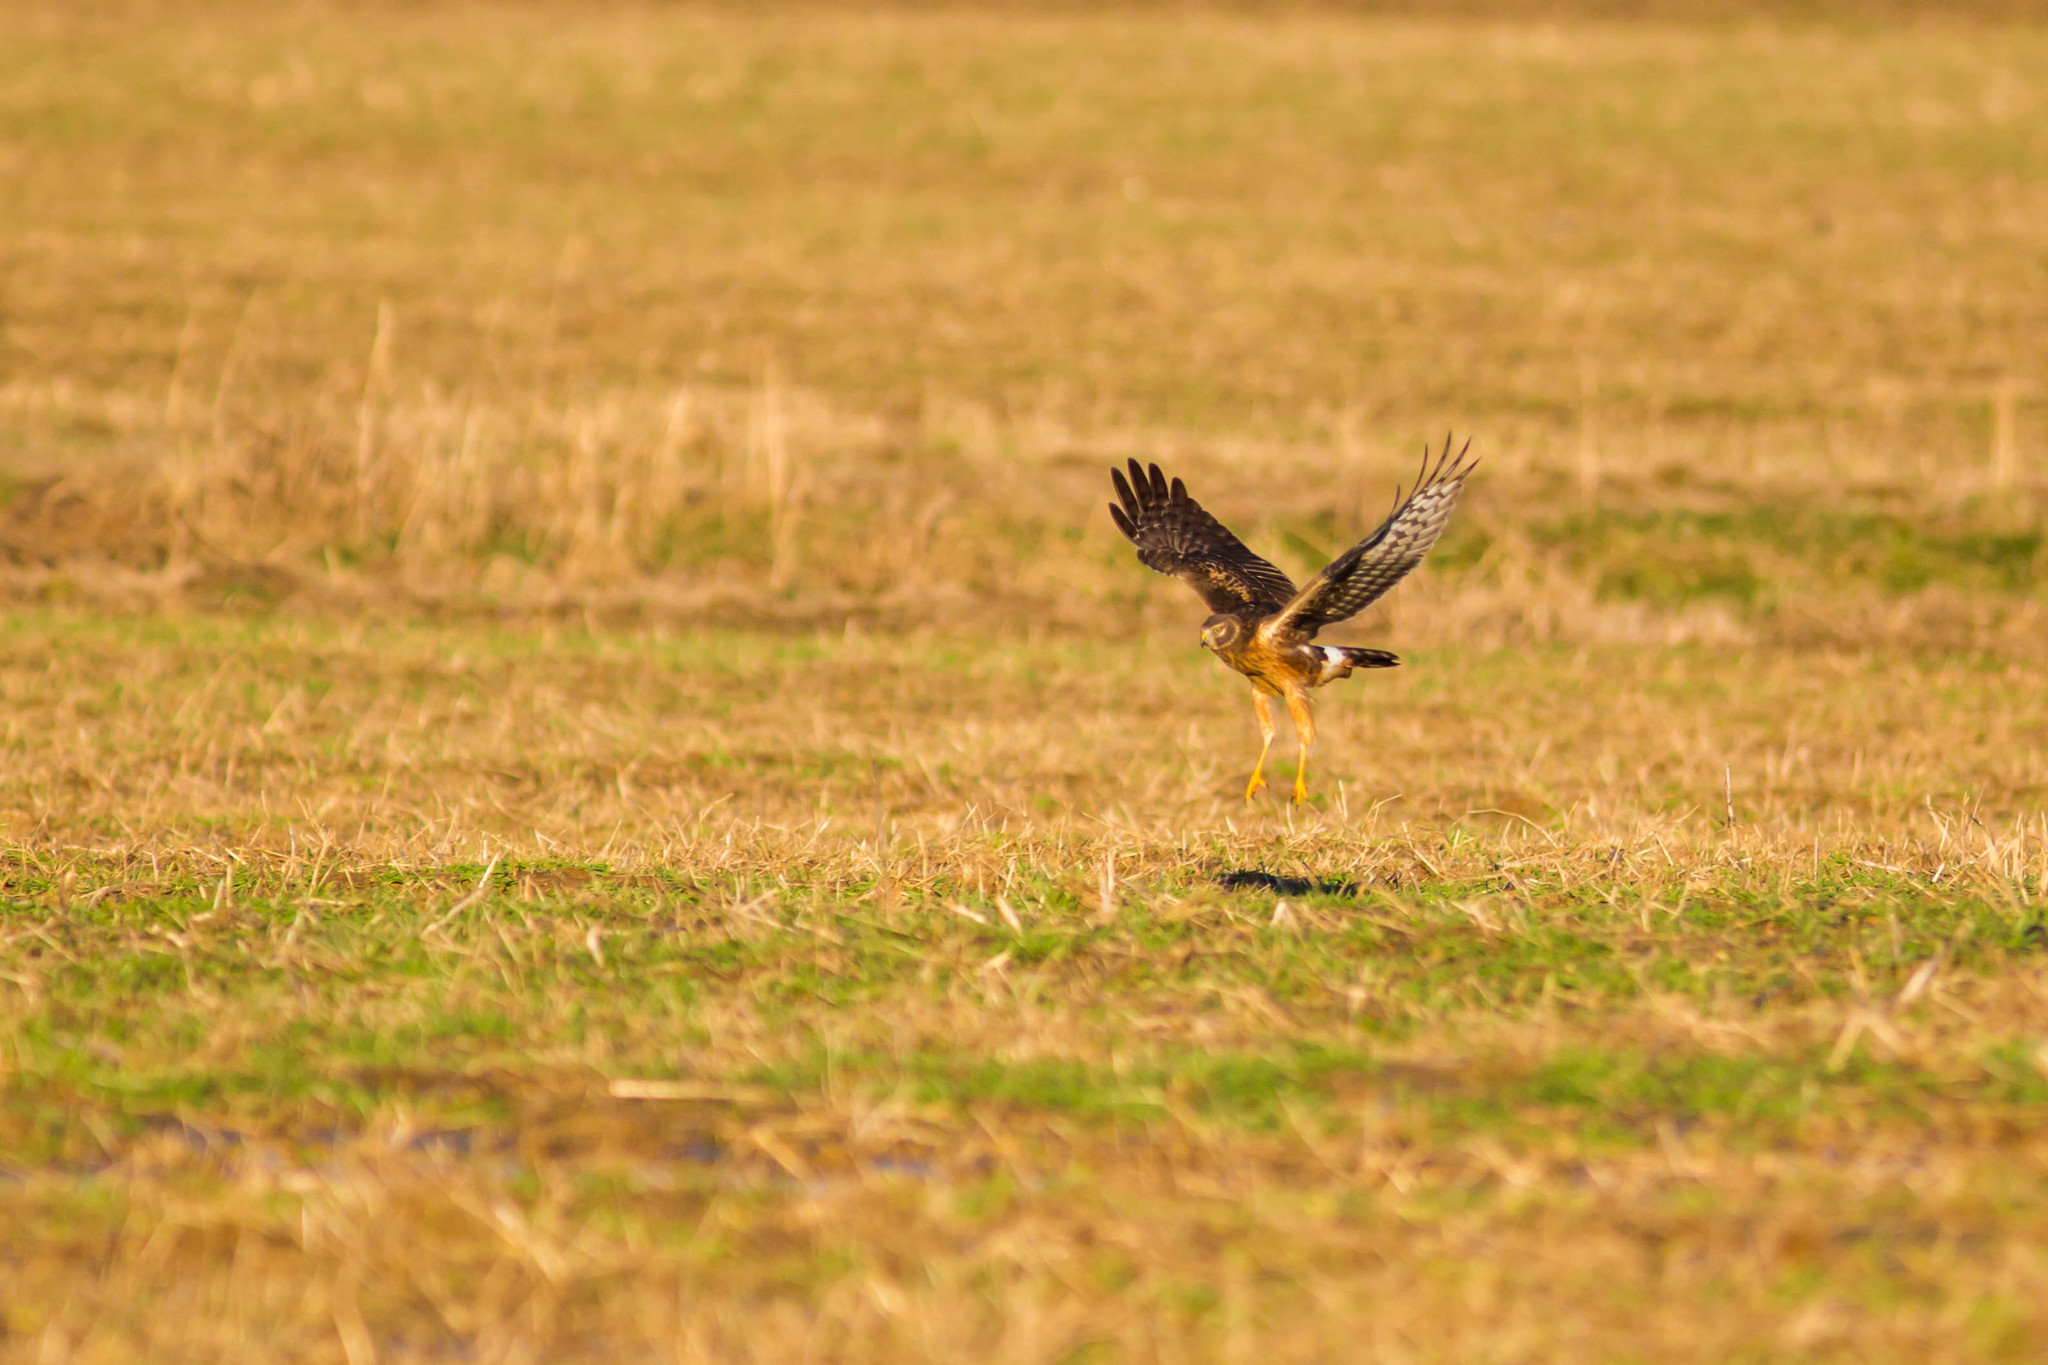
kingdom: Animalia
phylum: Chordata
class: Aves
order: Accipitriformes
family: Accipitridae
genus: Circus
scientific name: Circus cyaneus
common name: Hen harrier
